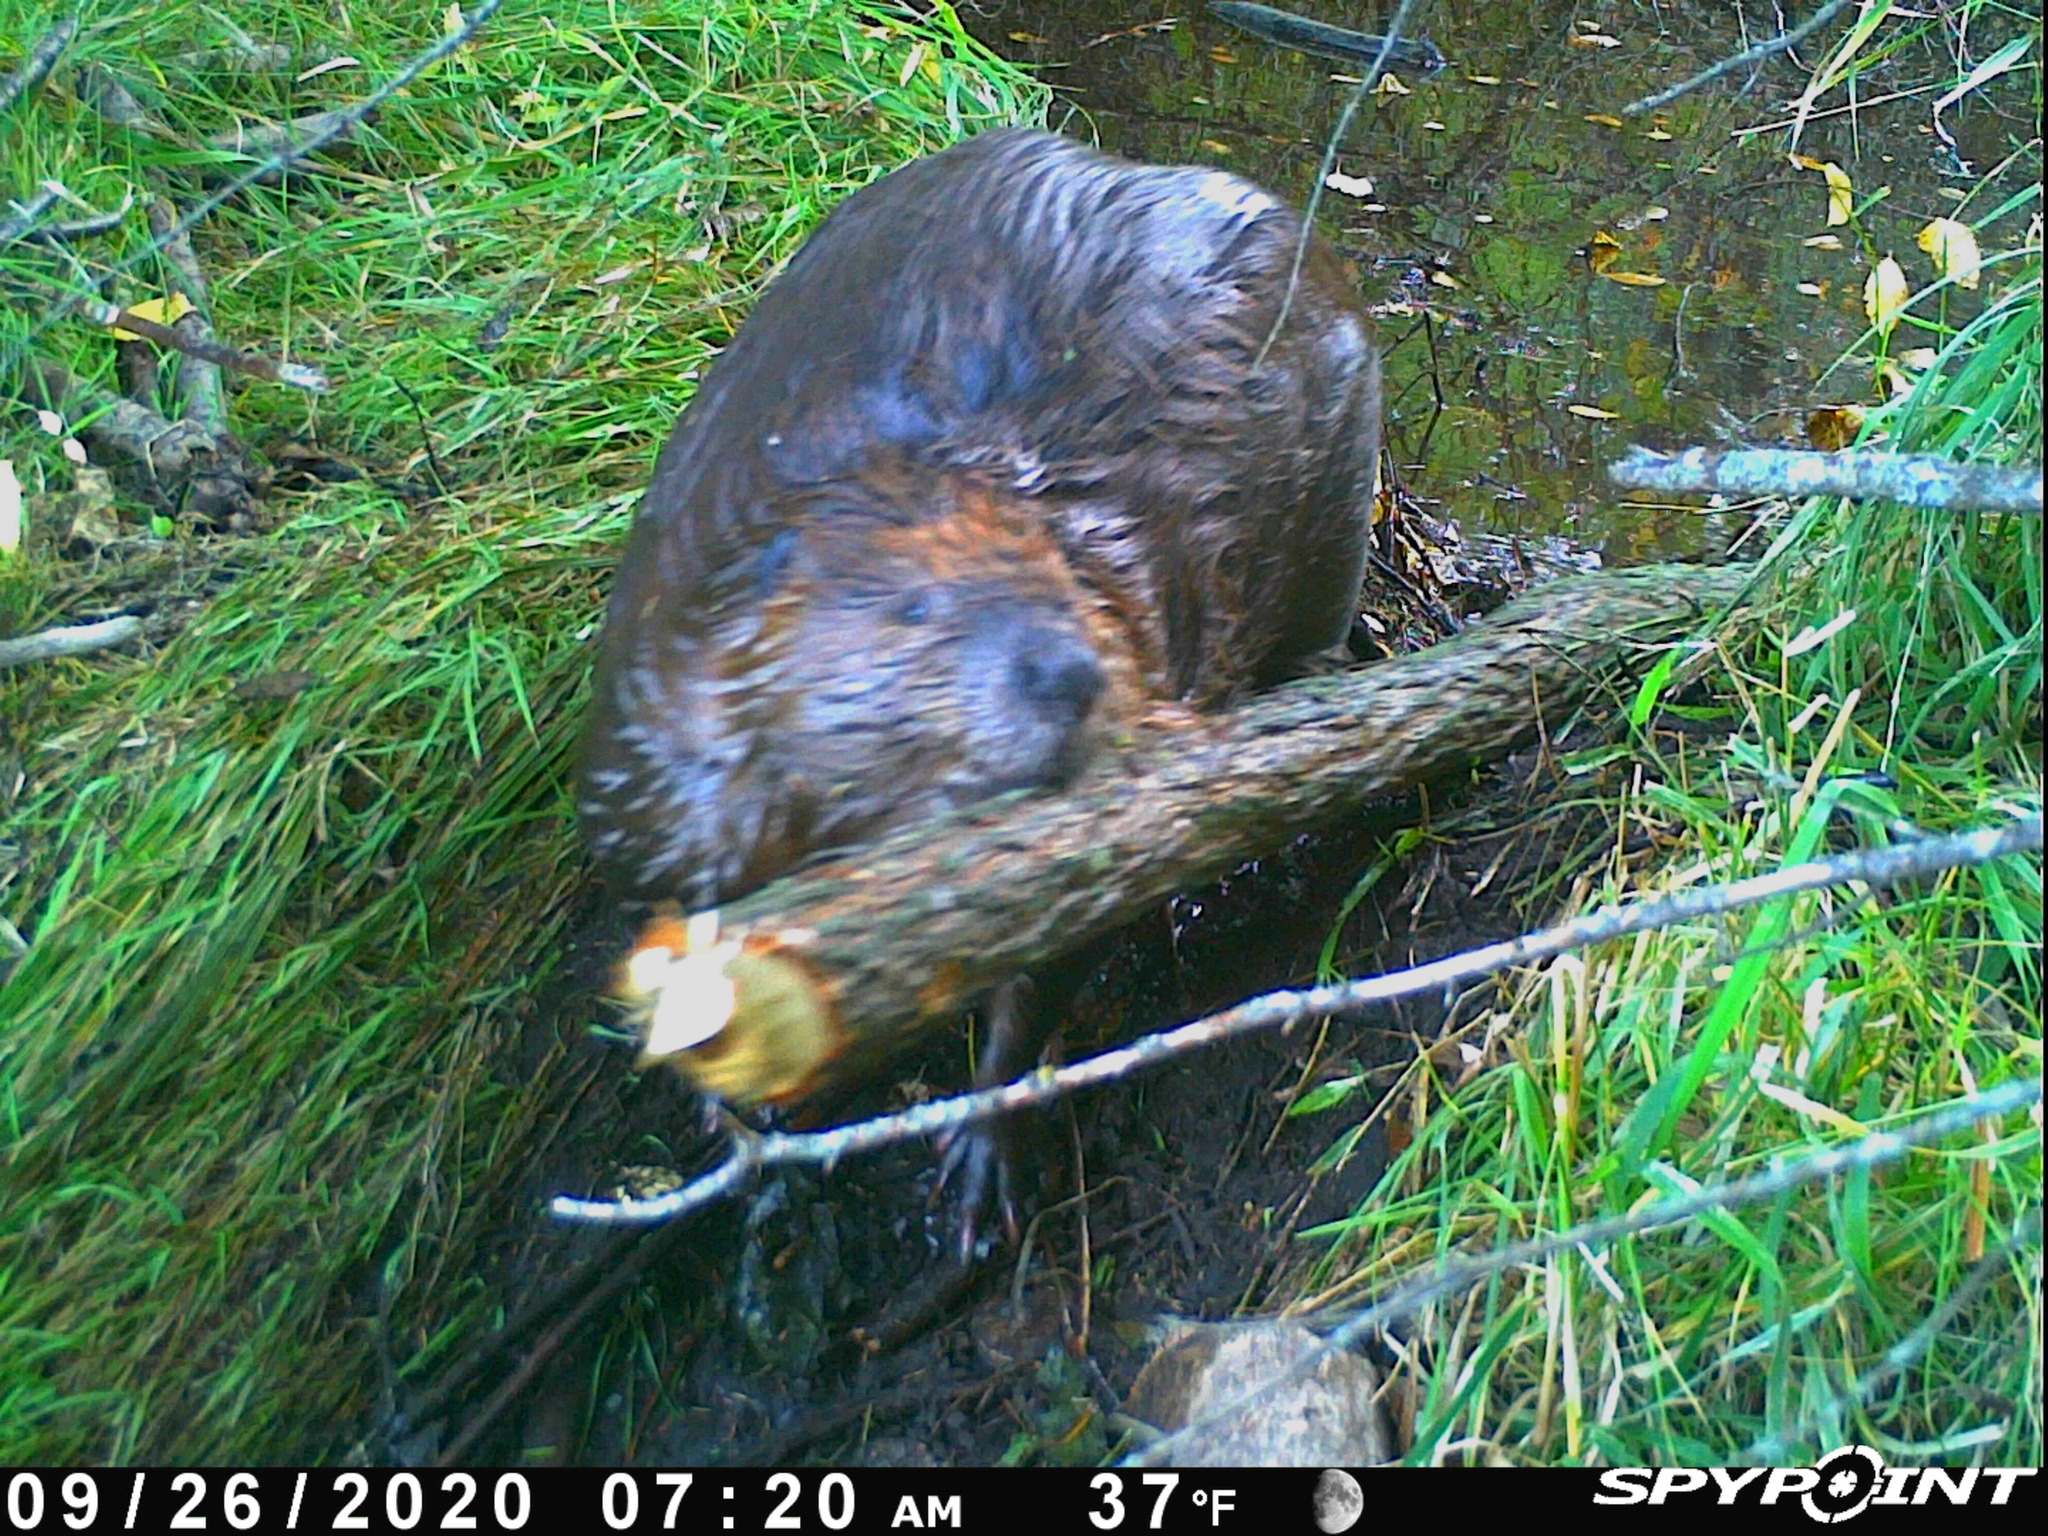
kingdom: Animalia
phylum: Chordata
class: Mammalia
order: Rodentia
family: Castoridae
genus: Castor
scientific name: Castor canadensis
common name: American beaver
